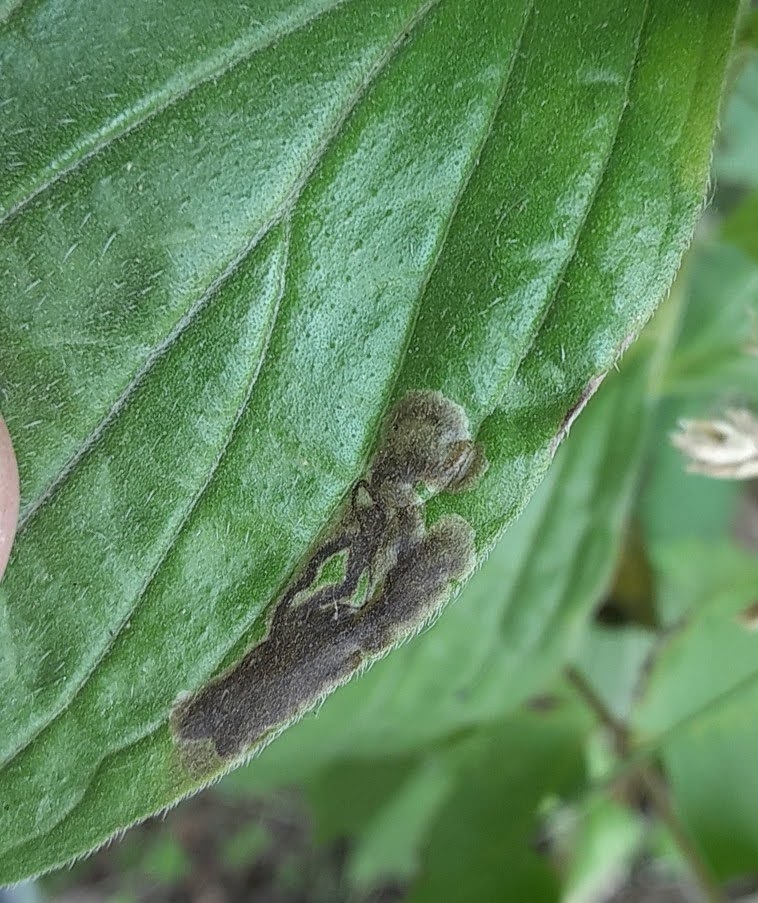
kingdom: Animalia
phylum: Arthropoda
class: Insecta
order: Diptera
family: Agromyzidae
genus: Phytomyza
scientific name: Phytomyza agromyzina
